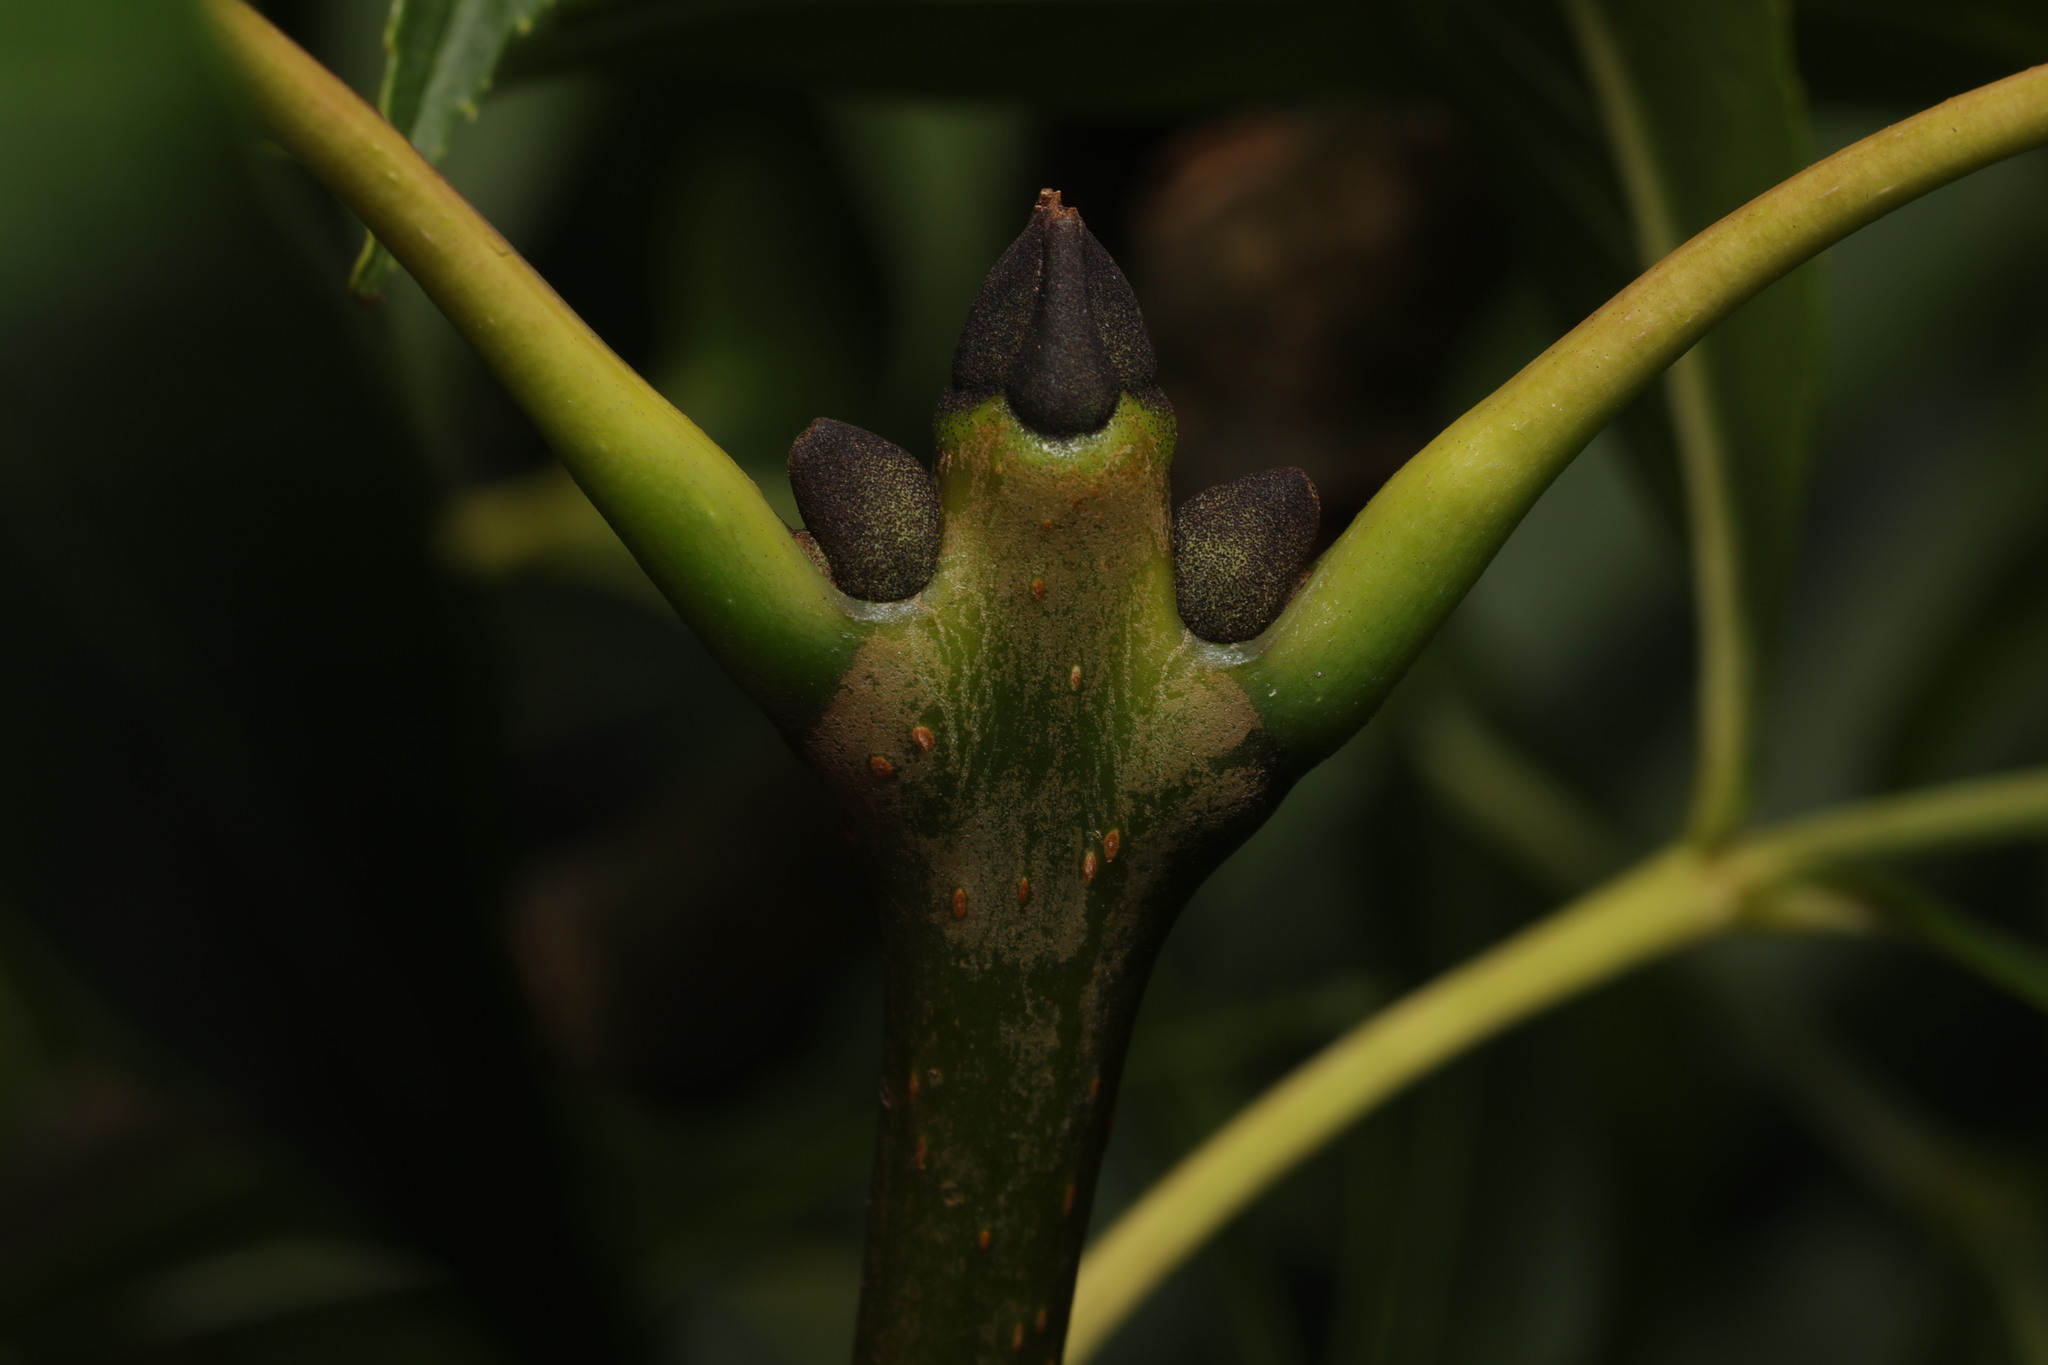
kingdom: Plantae
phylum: Tracheophyta
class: Magnoliopsida
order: Lamiales
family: Oleaceae
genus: Fraxinus
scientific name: Fraxinus excelsior
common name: European ash
